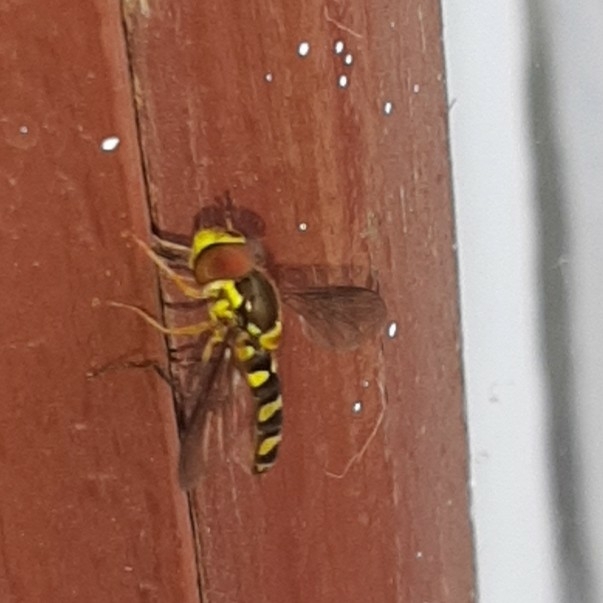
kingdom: Animalia
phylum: Arthropoda
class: Insecta
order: Diptera
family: Syrphidae
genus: Fazia
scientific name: Fazia micrura
